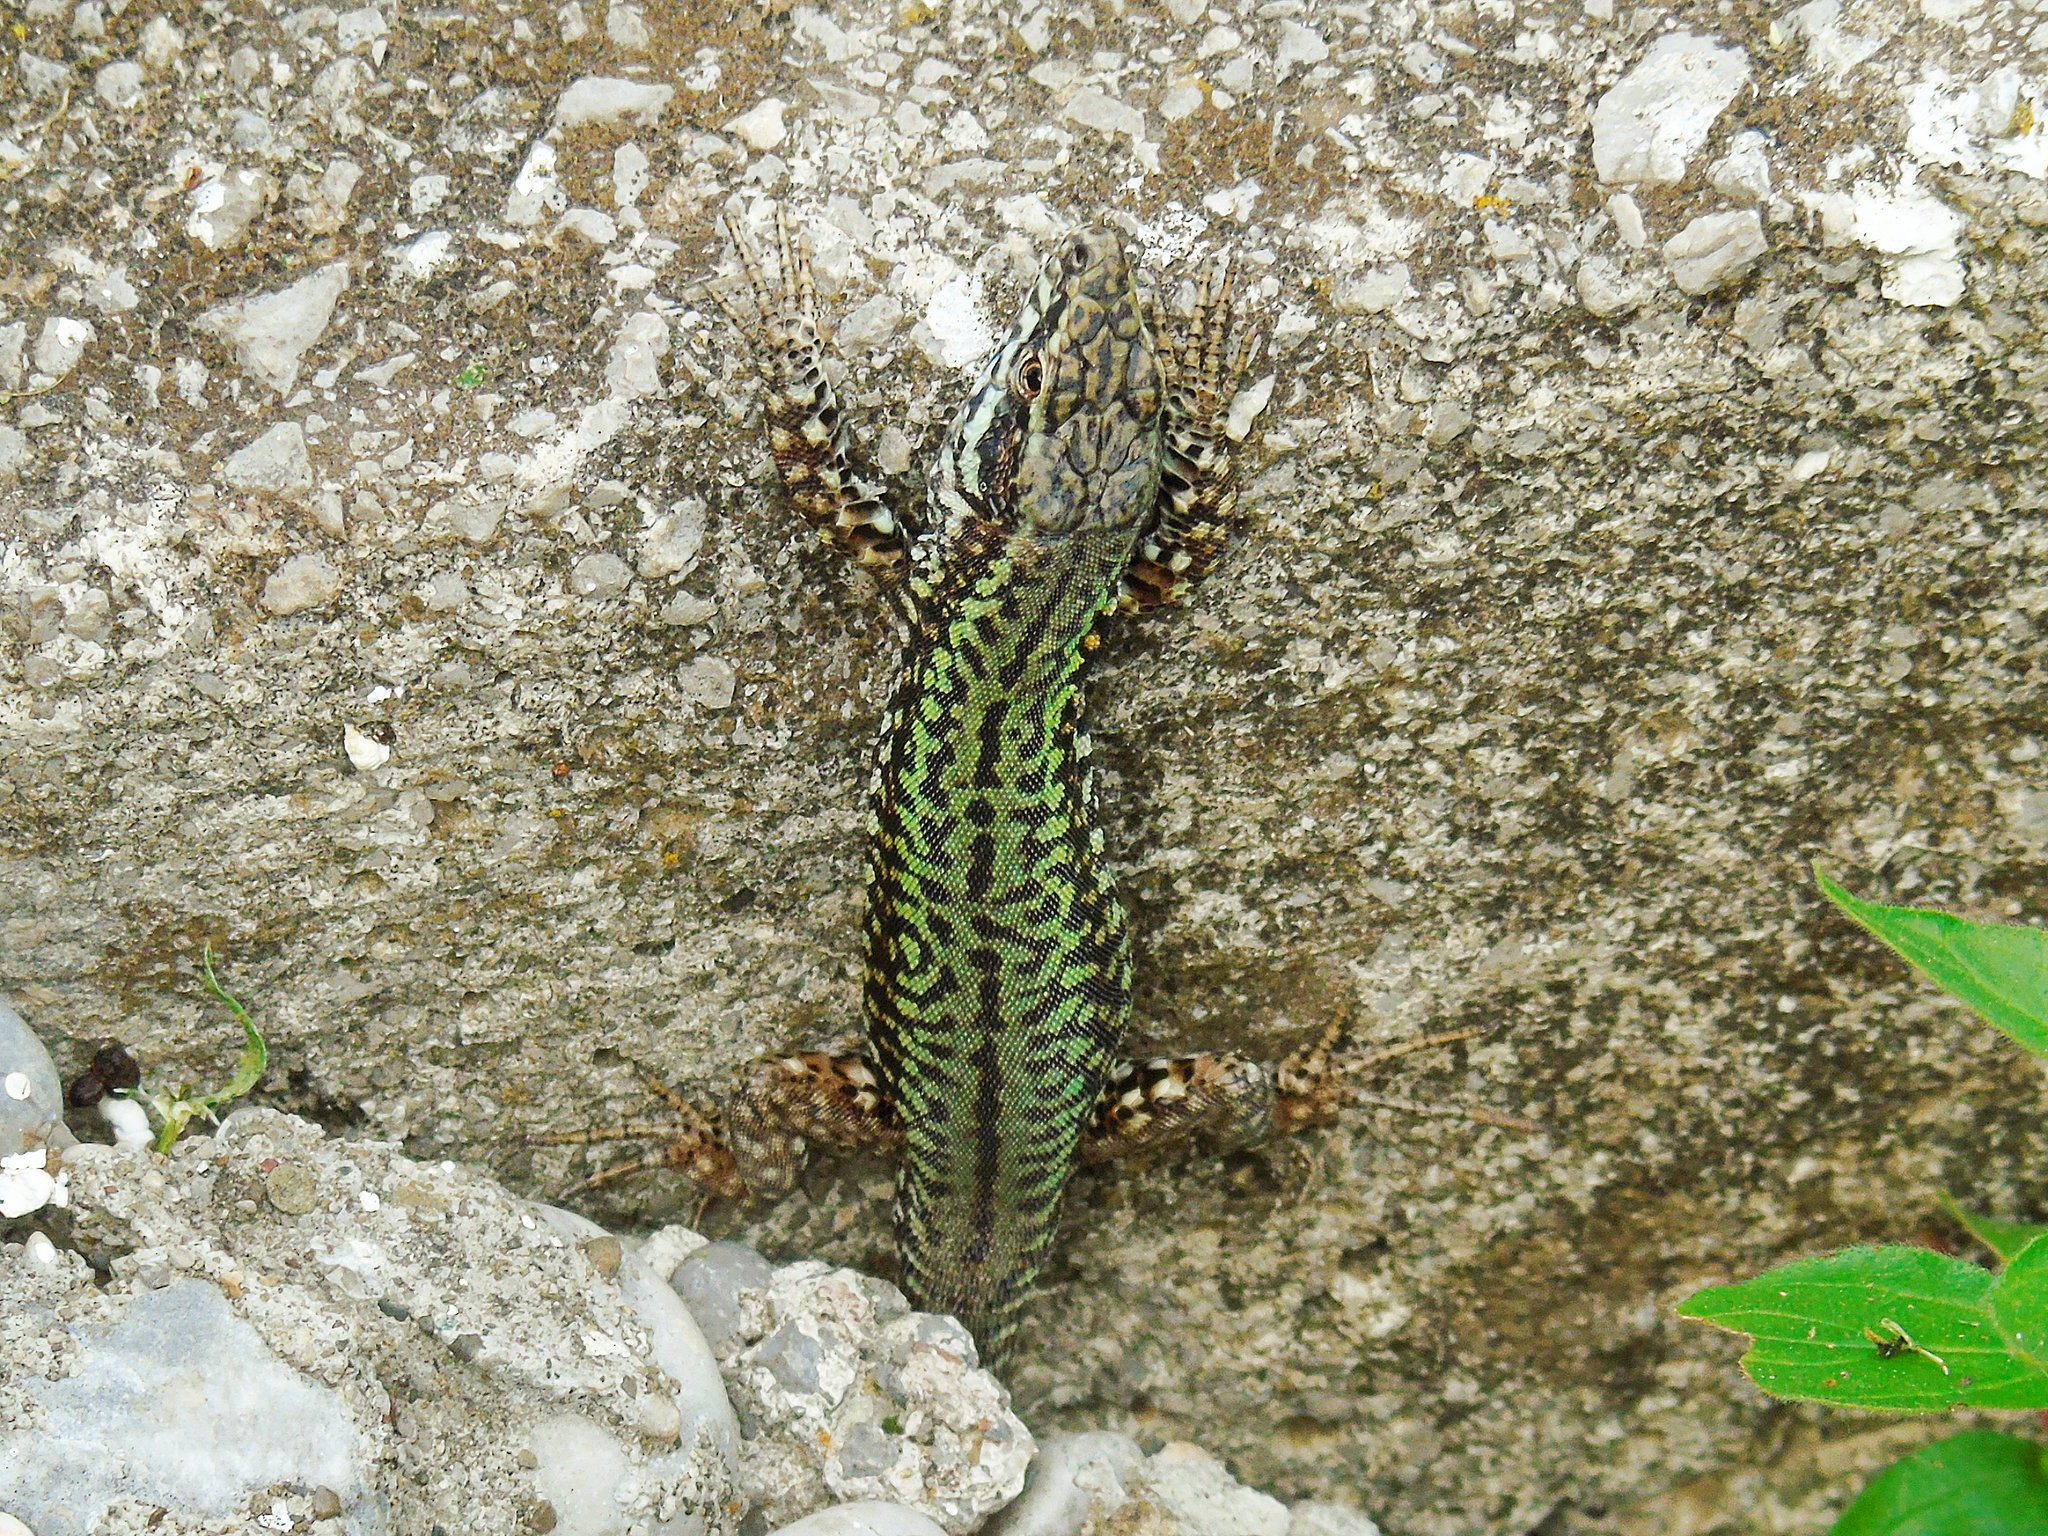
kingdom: Animalia
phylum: Chordata
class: Squamata
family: Lacertidae
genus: Podarcis
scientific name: Podarcis muralis
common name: Common wall lizard
